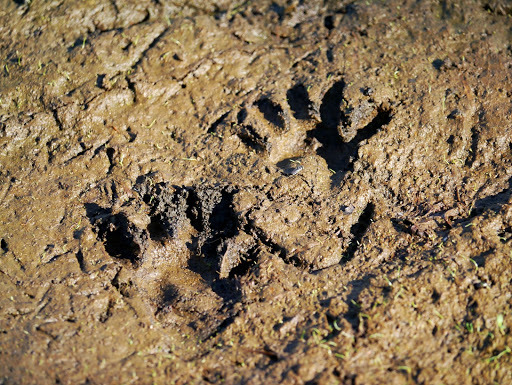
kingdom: Animalia
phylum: Chordata
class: Mammalia
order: Carnivora
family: Procyonidae
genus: Procyon
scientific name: Procyon lotor
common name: Raccoon
